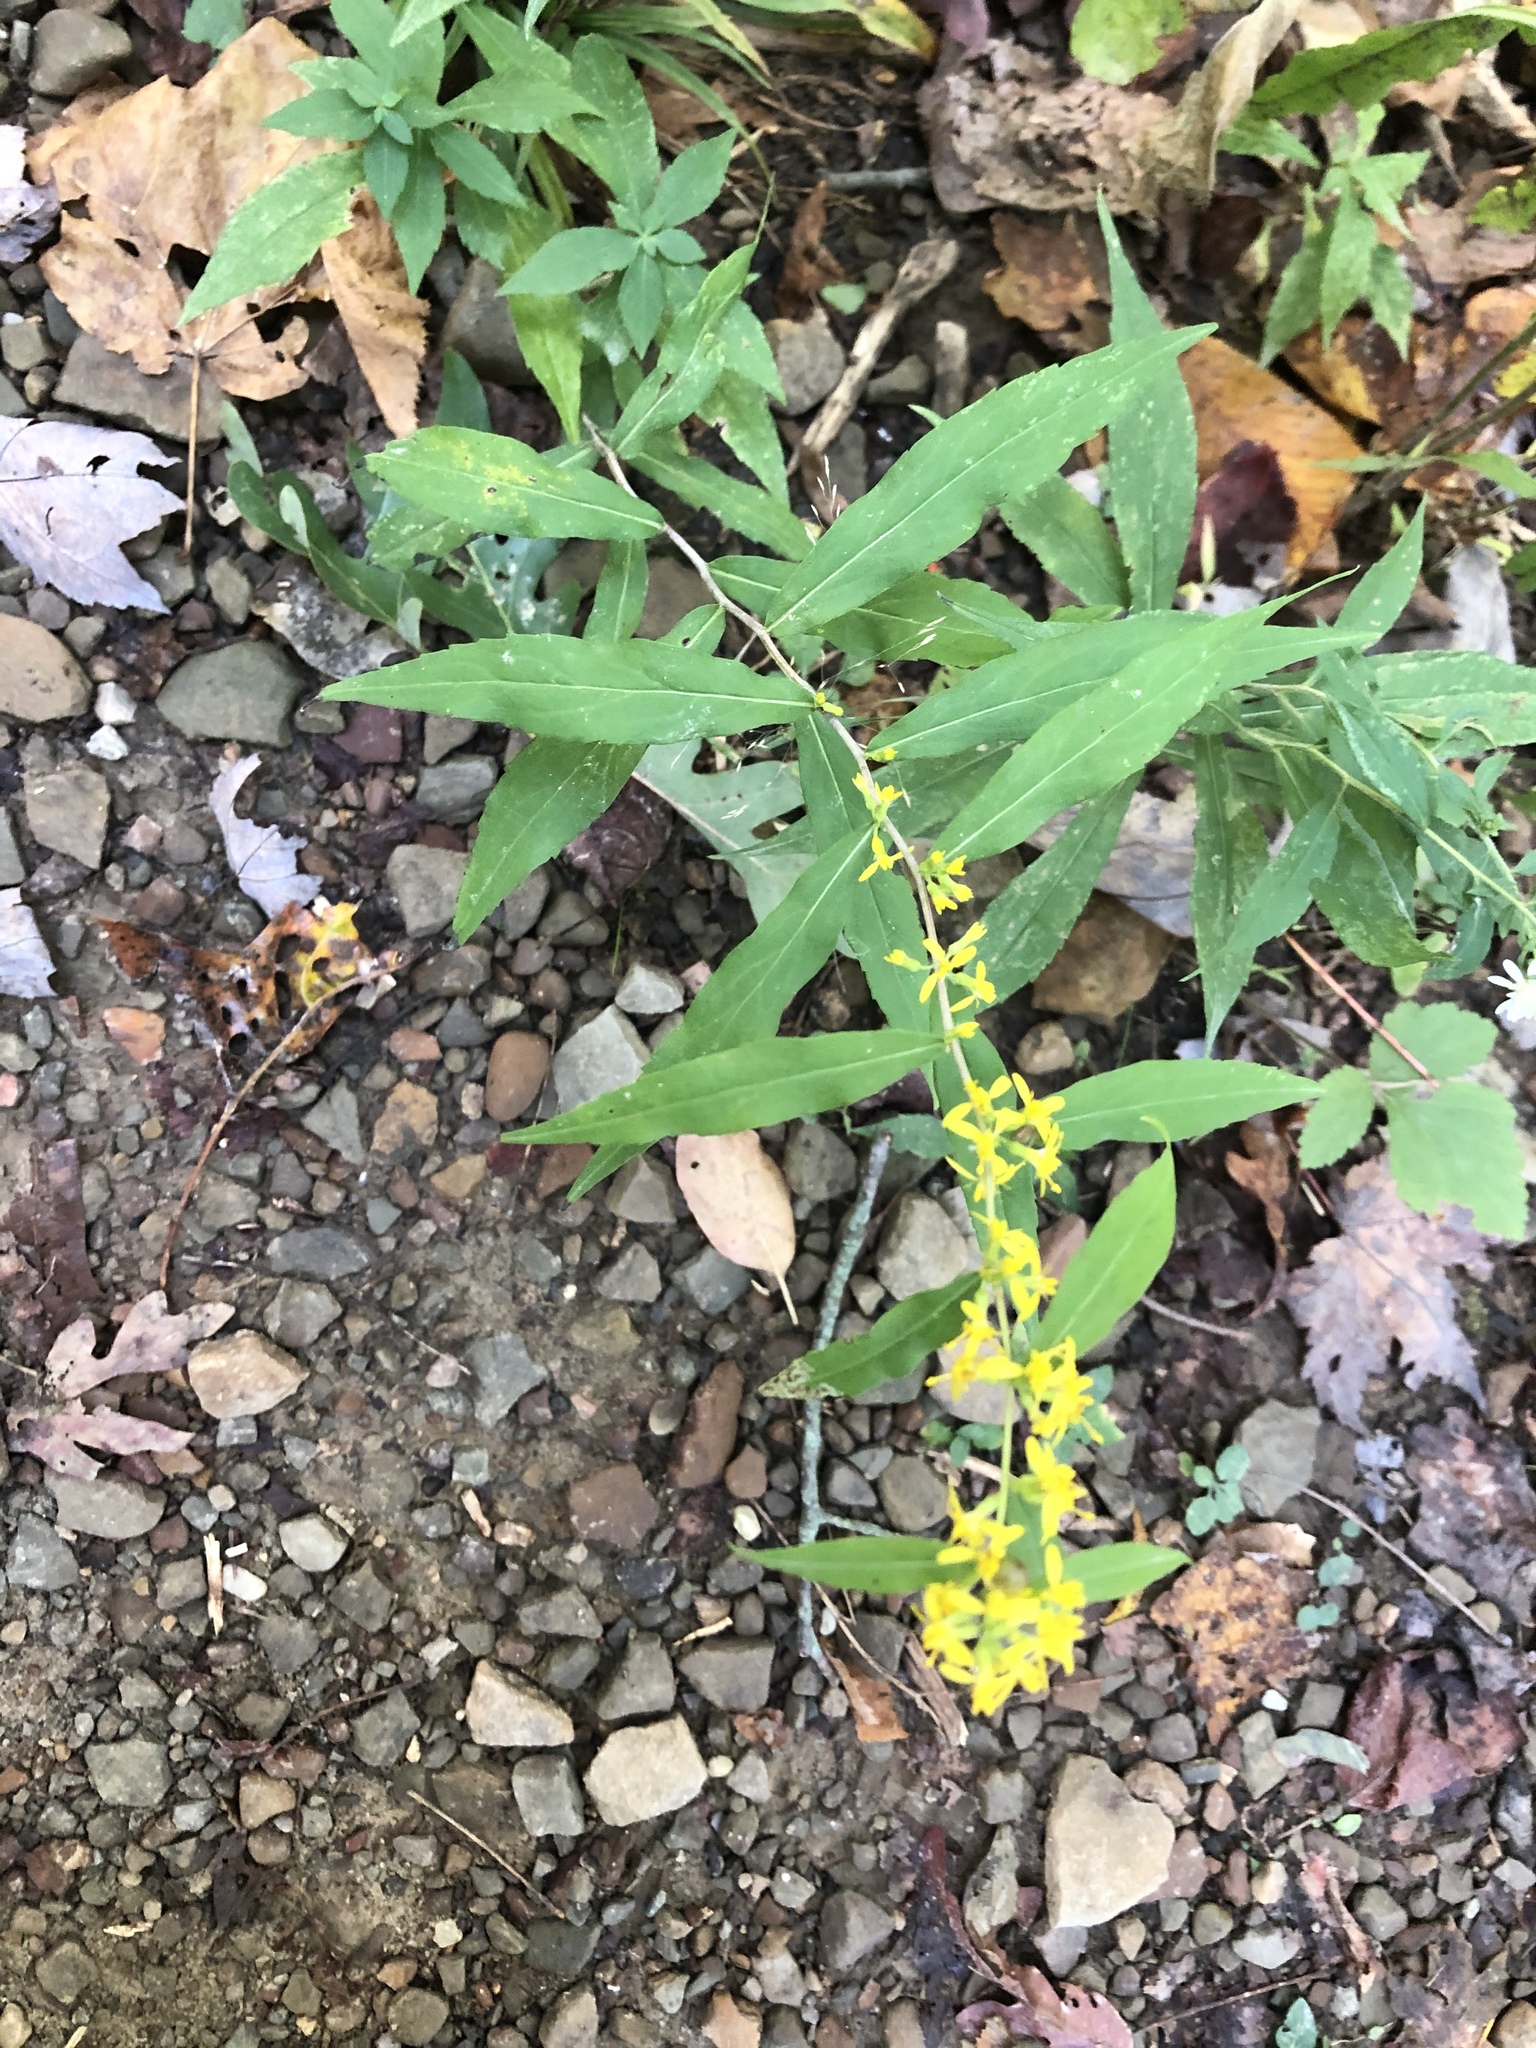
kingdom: Plantae
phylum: Tracheophyta
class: Magnoliopsida
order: Asterales
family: Asteraceae
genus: Solidago
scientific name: Solidago caesia
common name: Woodland goldenrod
